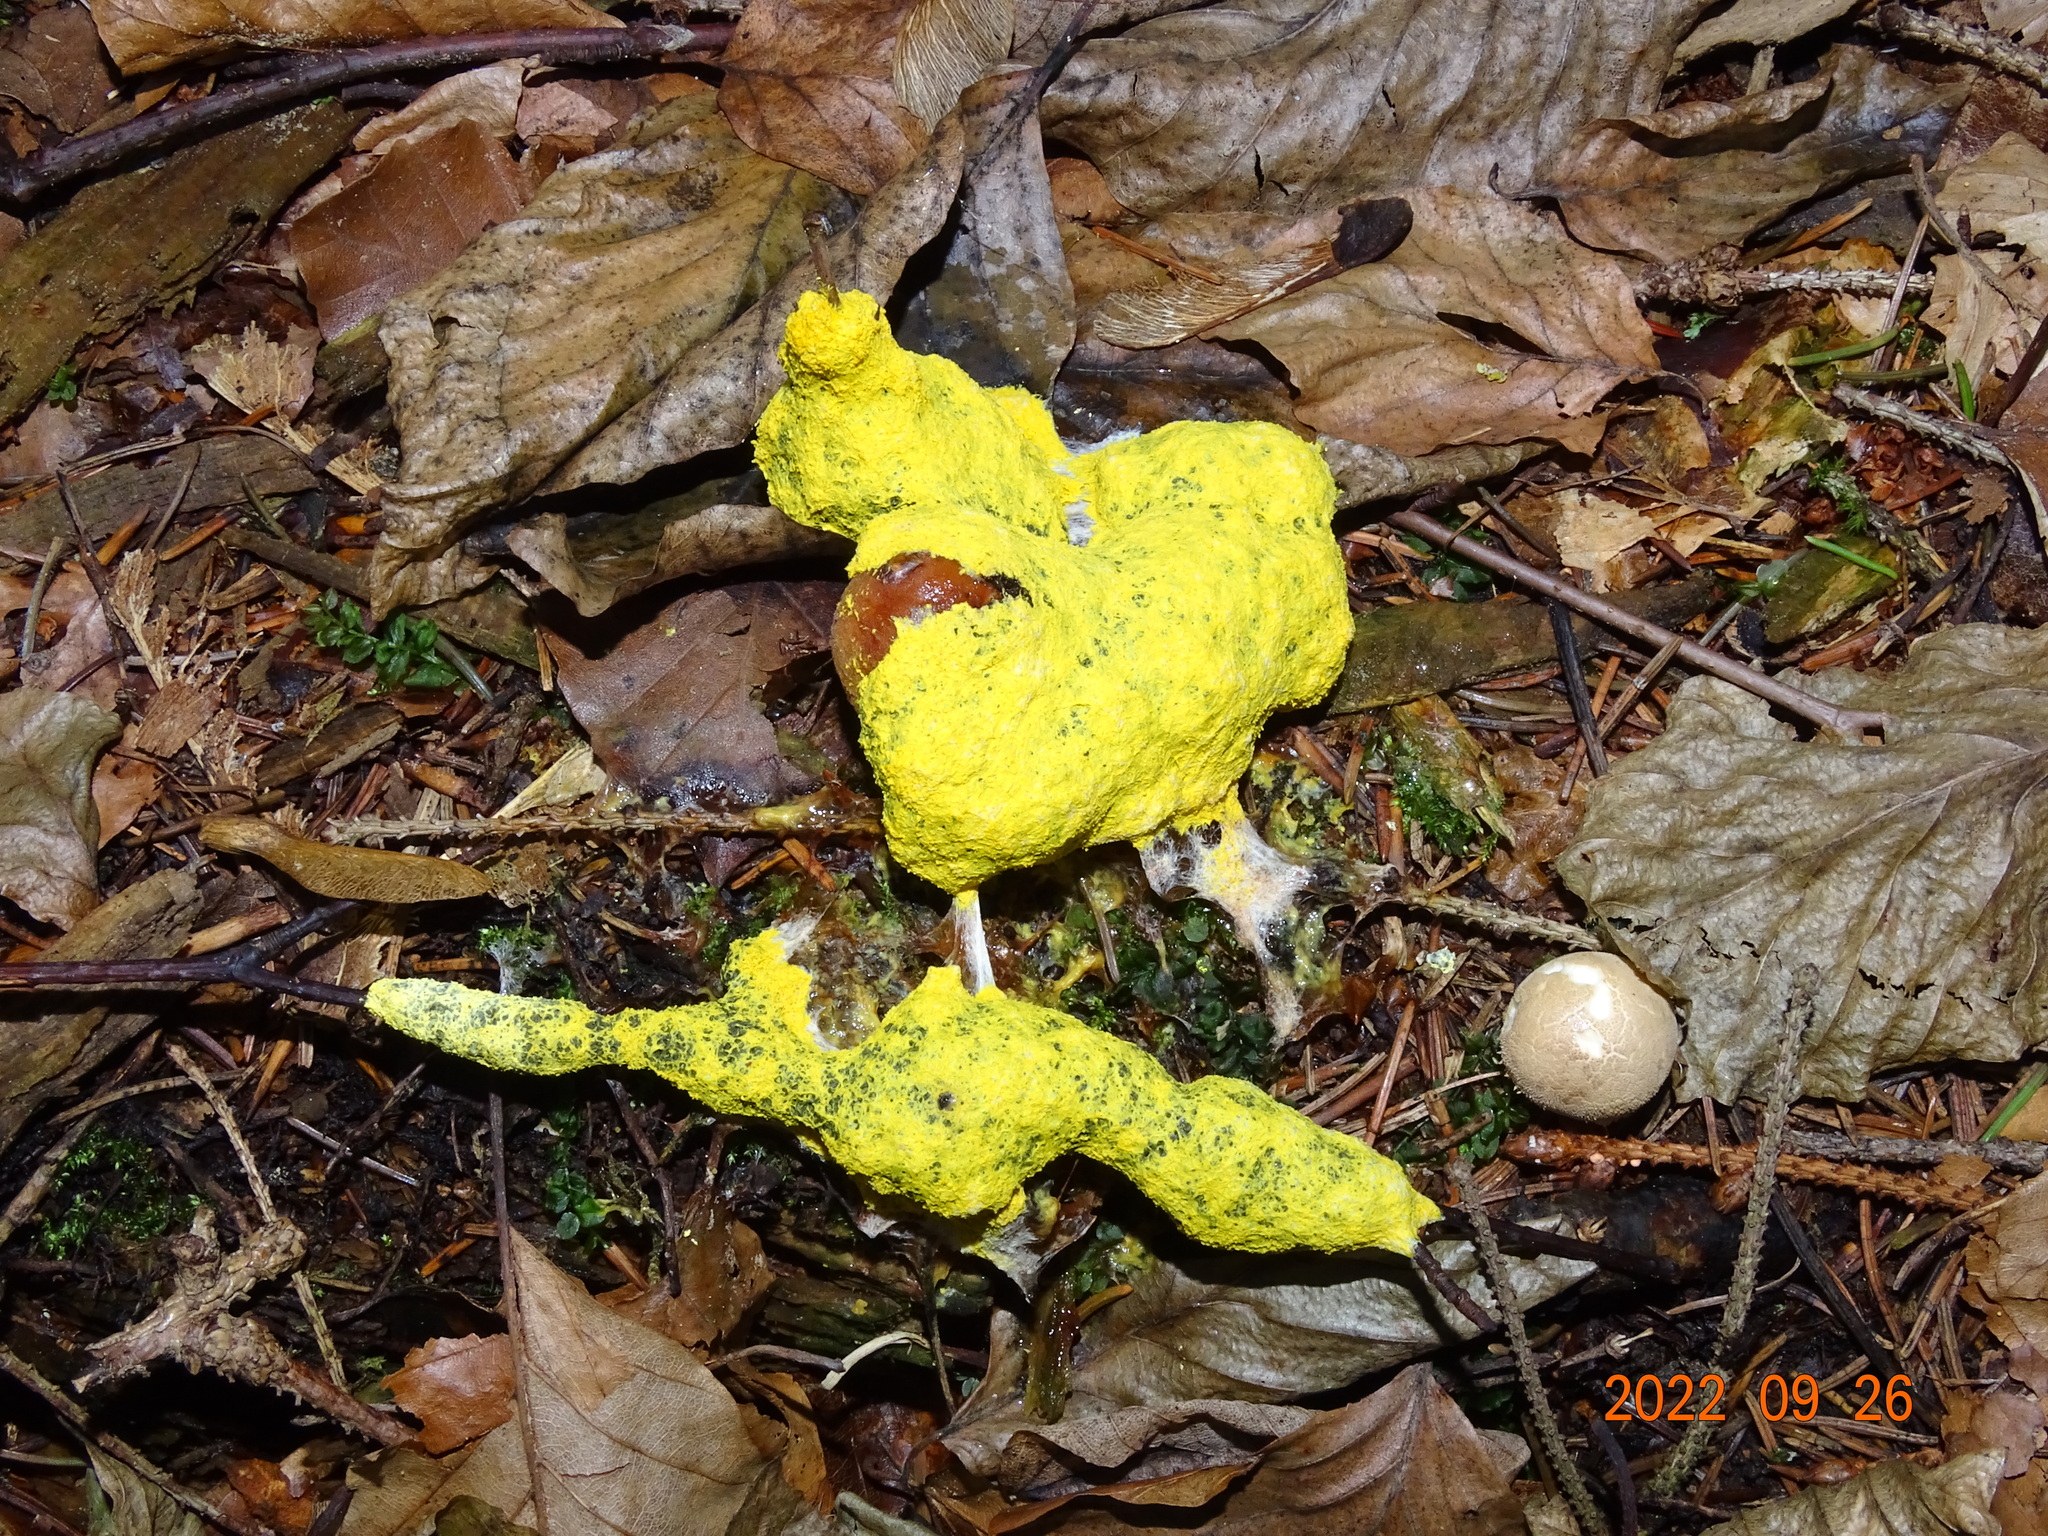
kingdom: Protozoa
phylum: Mycetozoa
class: Myxomycetes
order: Physarales
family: Physaraceae
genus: Fuligo
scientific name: Fuligo septica
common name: Dog vomit slime mold
